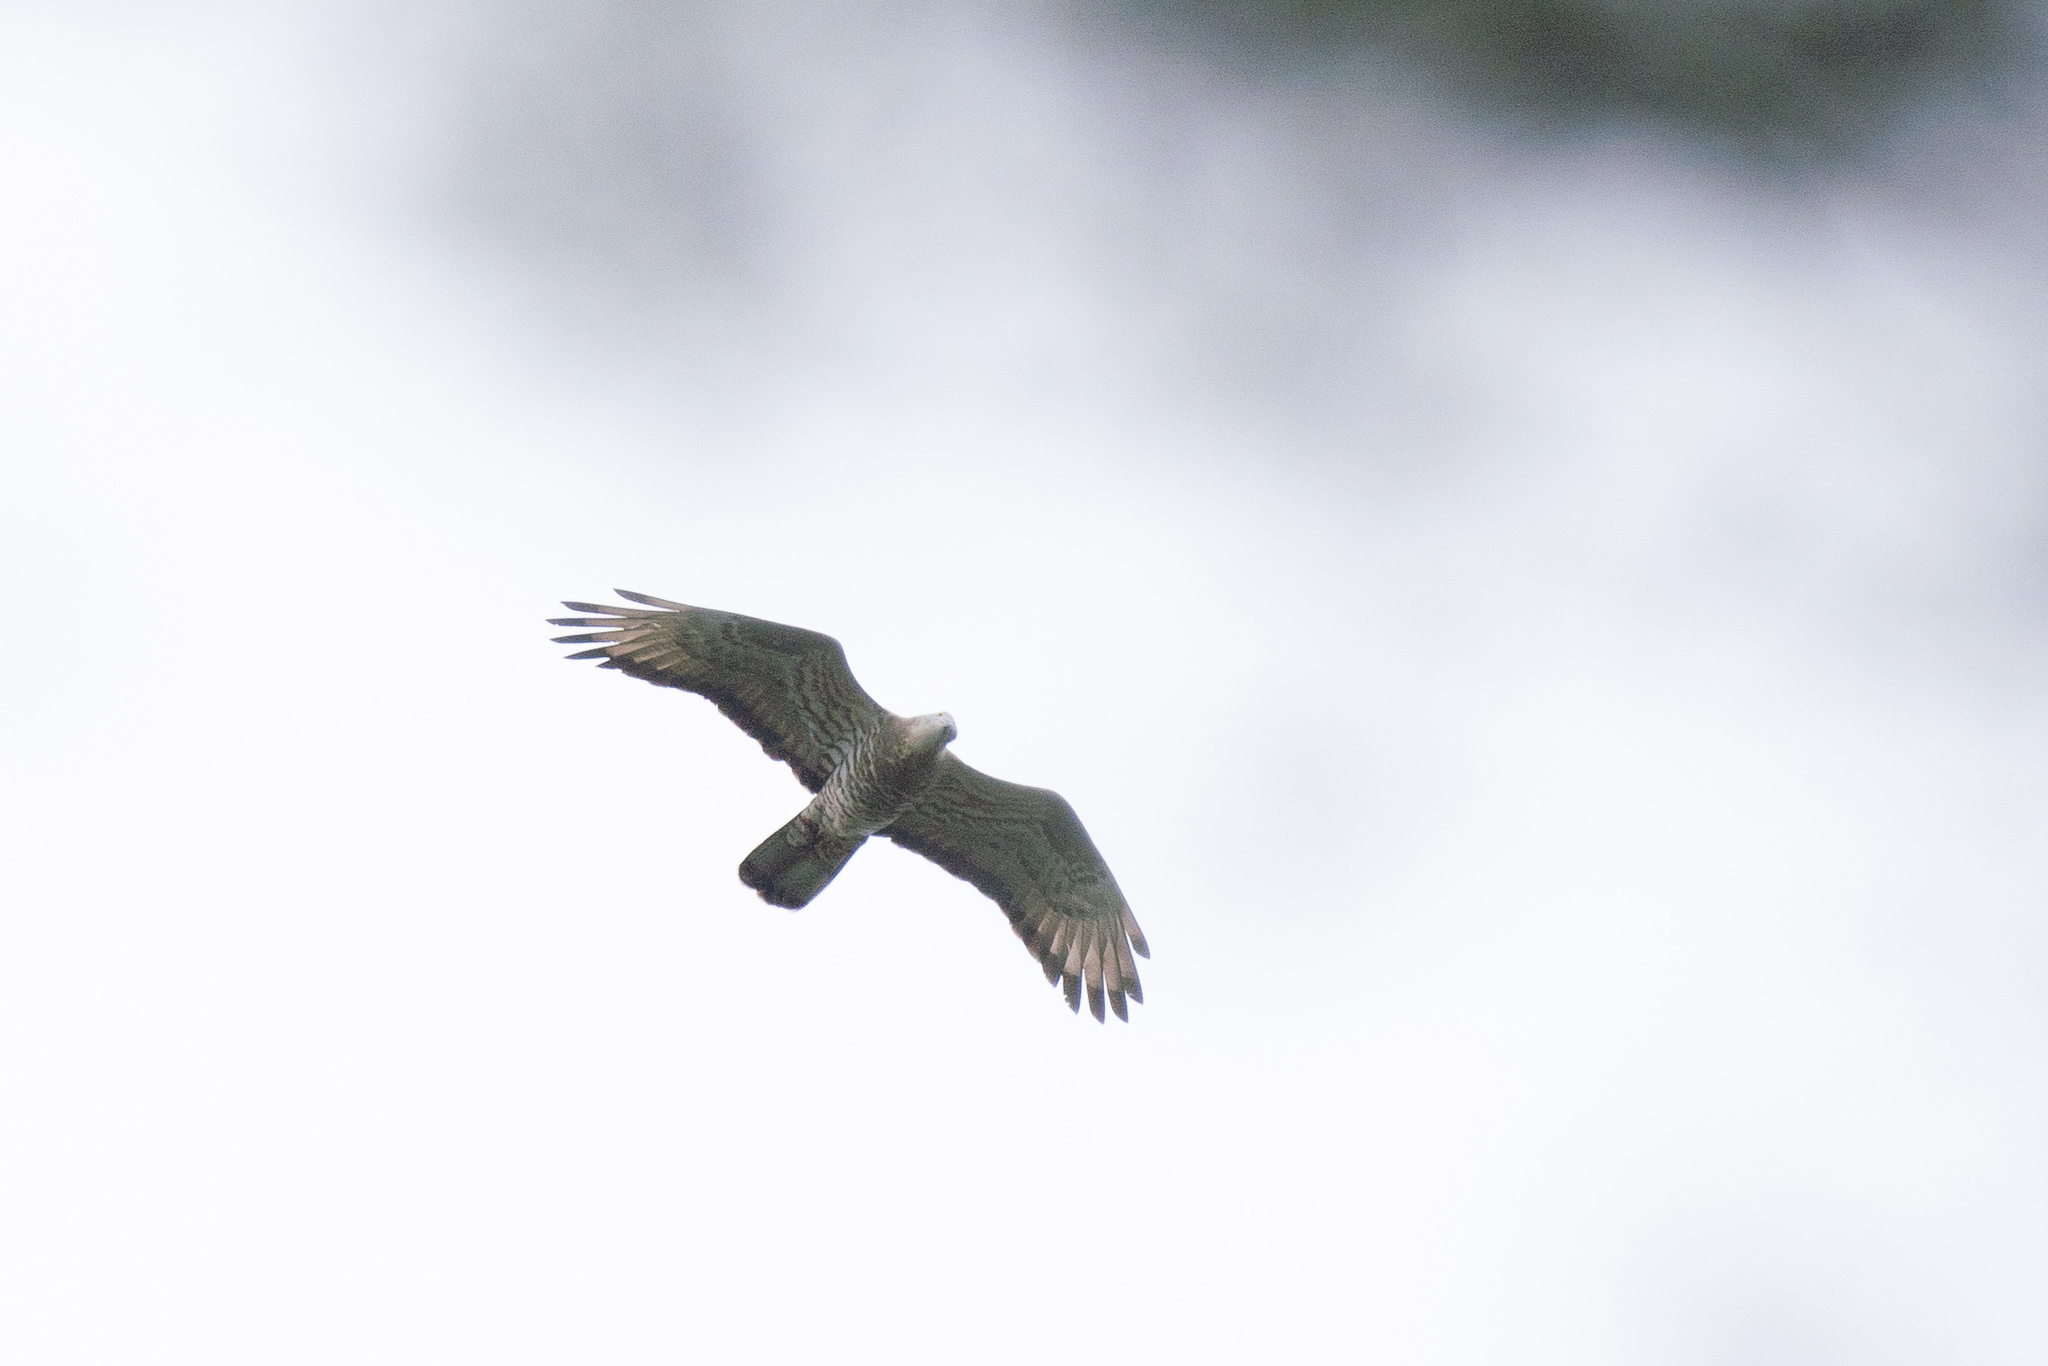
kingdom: Animalia
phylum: Chordata
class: Aves
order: Accipitriformes
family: Accipitridae
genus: Pernis
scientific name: Pernis apivorus
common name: European honey buzzard
